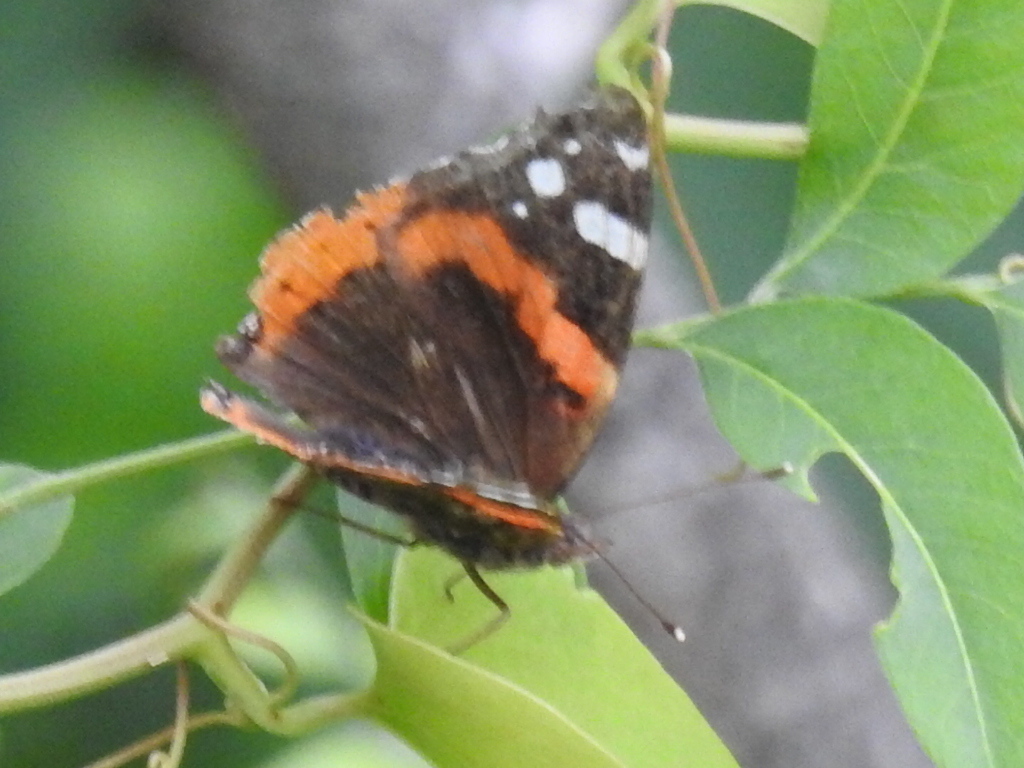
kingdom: Animalia
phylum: Arthropoda
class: Insecta
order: Lepidoptera
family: Nymphalidae
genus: Vanessa
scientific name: Vanessa atalanta
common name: Red admiral
